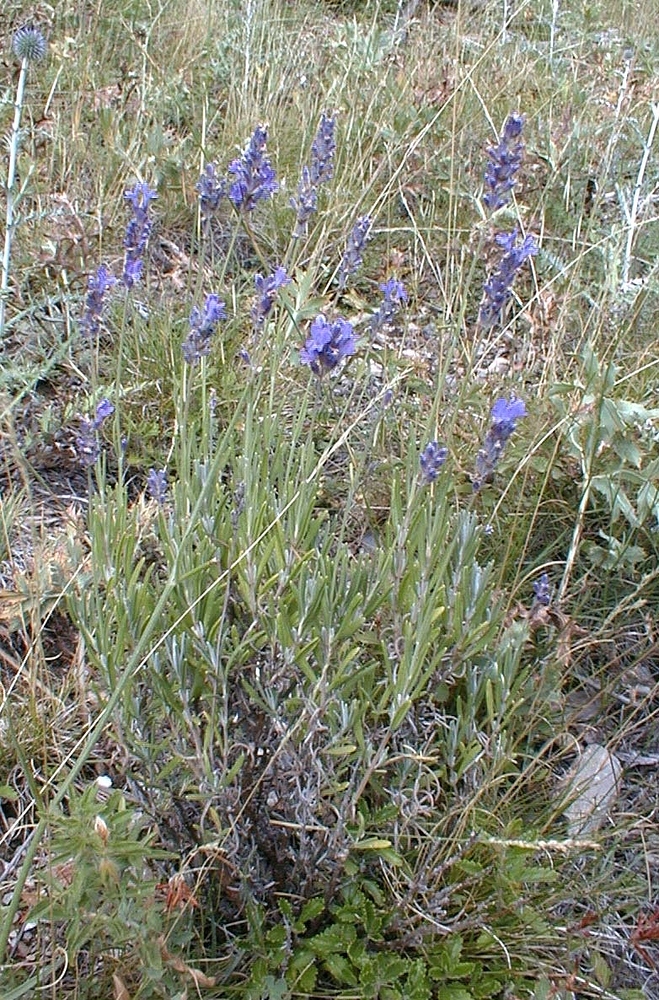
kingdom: Plantae
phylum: Tracheophyta
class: Magnoliopsida
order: Lamiales
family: Lamiaceae
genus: Lavandula
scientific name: Lavandula angustifolia
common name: Garden lavender
